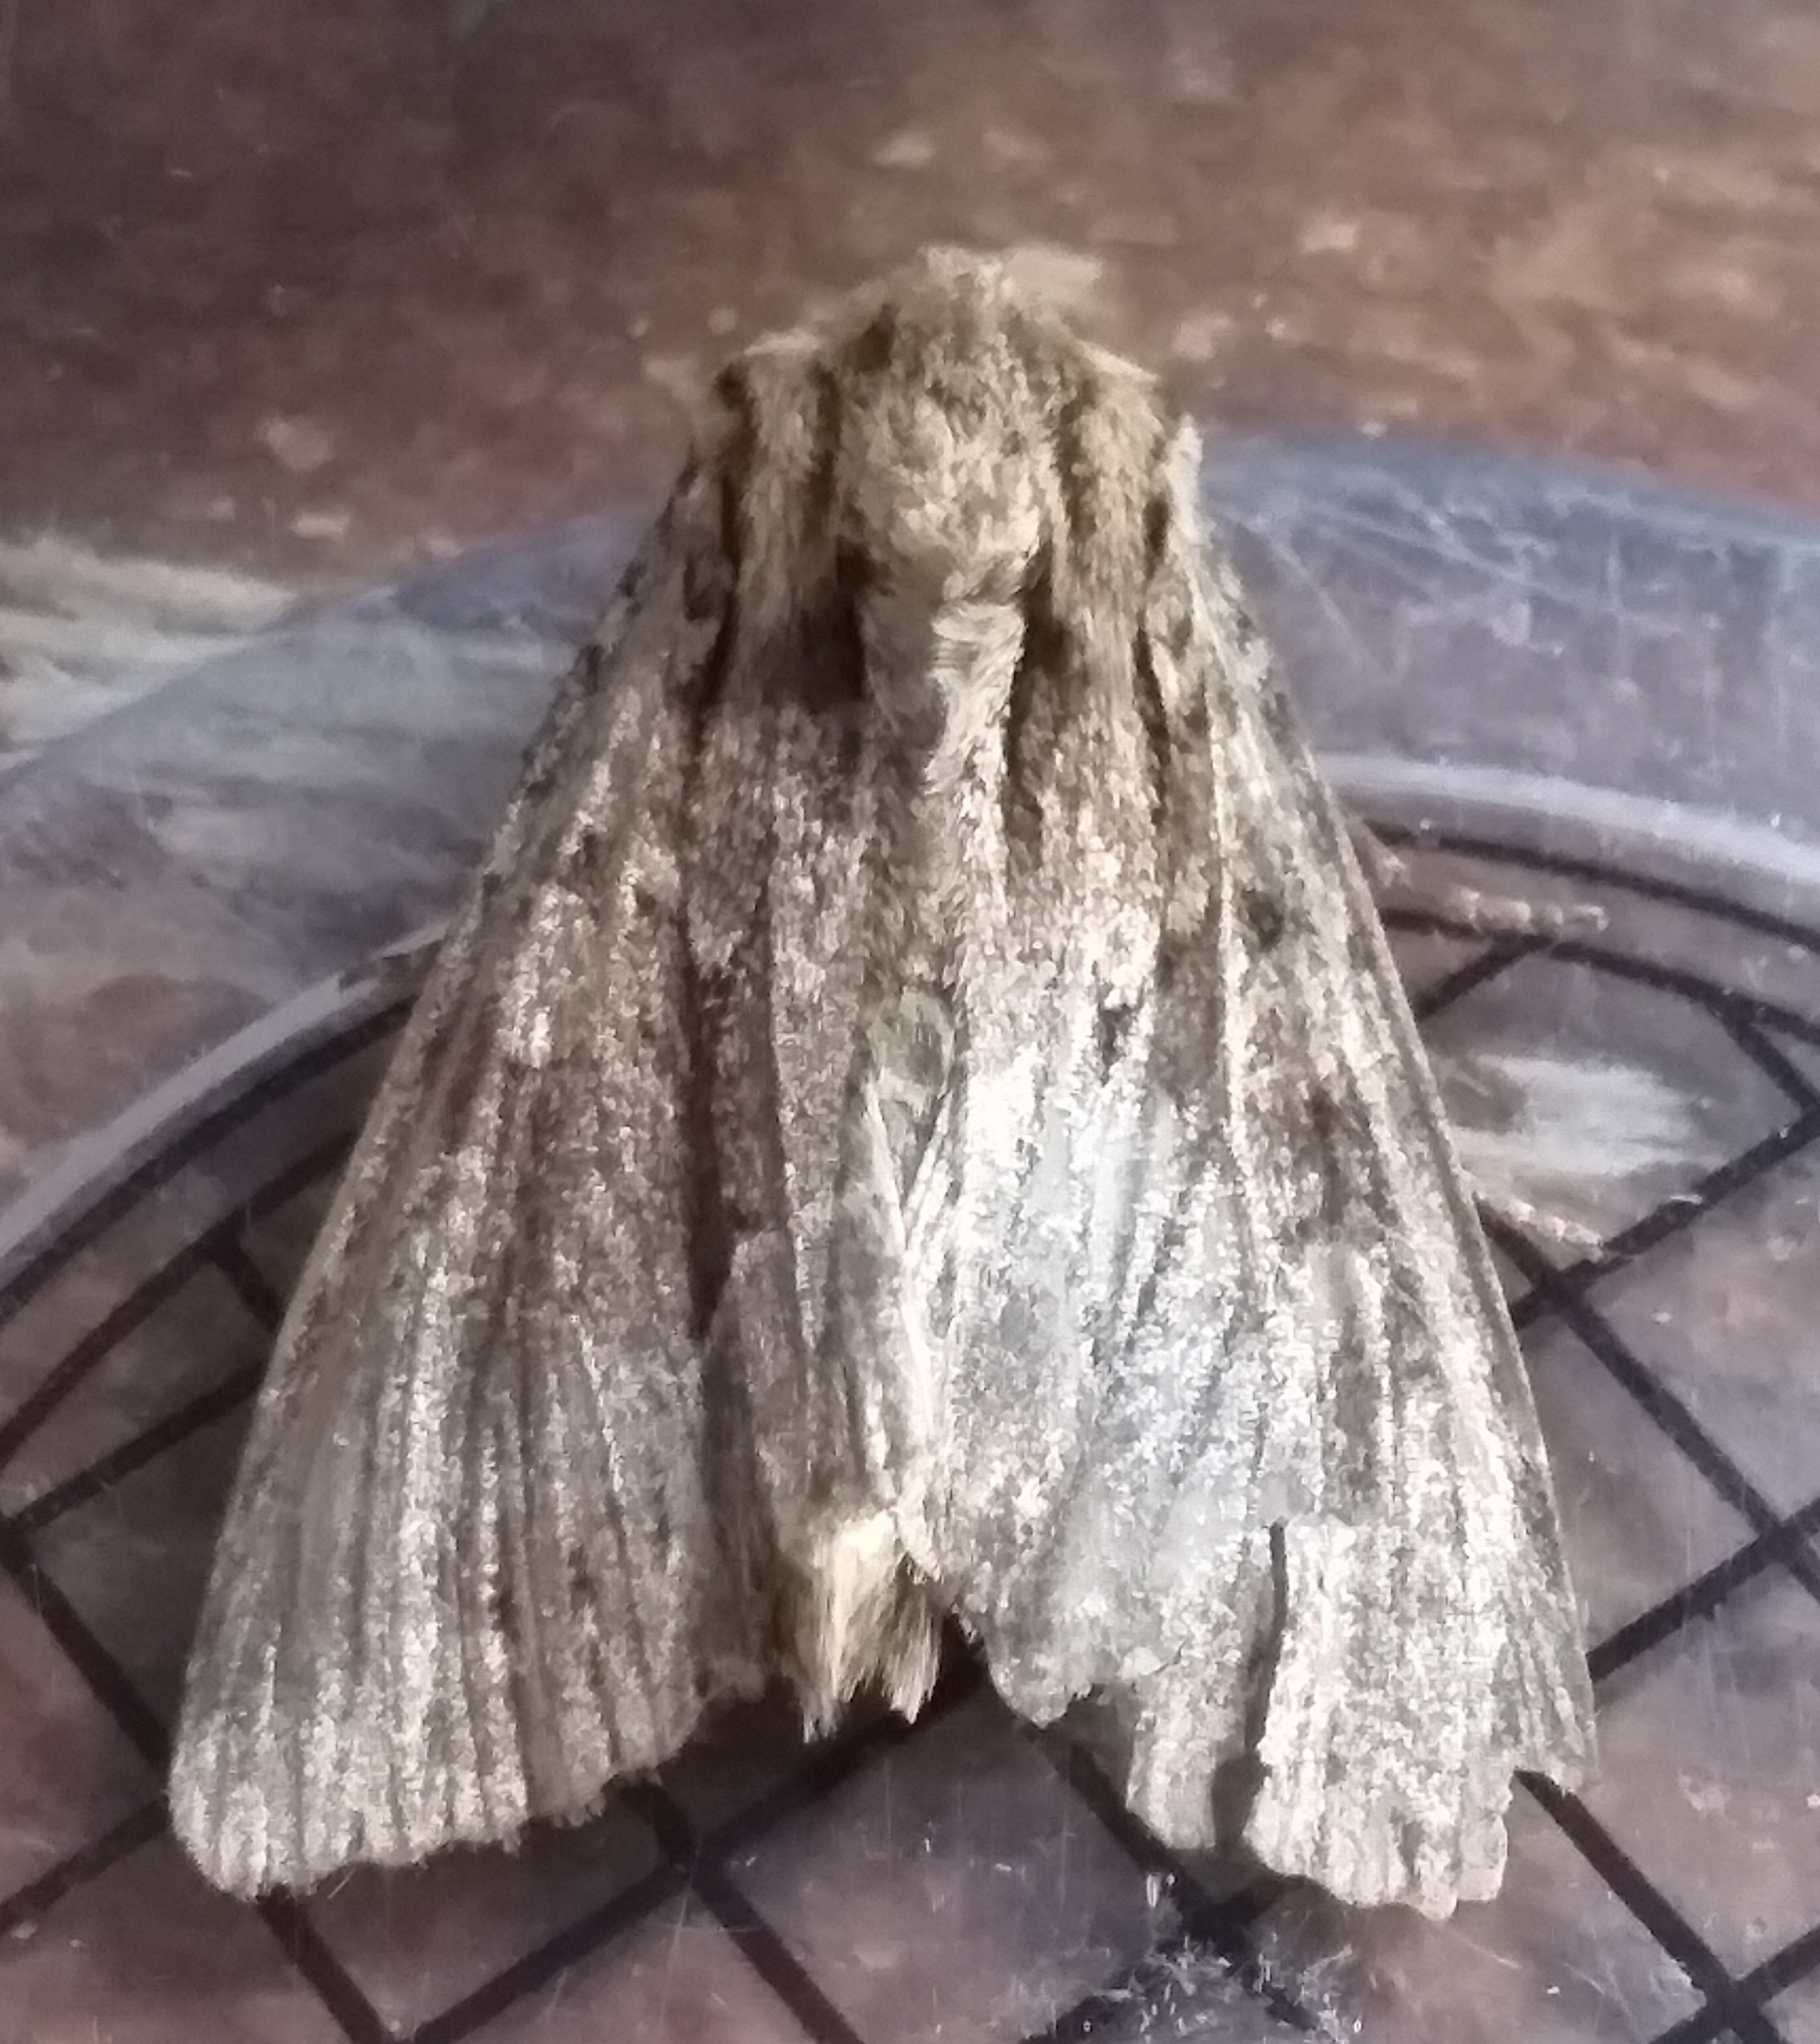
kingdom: Animalia
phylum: Arthropoda
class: Insecta
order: Lepidoptera
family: Noctuidae
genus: Apamea
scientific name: Apamea monoglypha
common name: Dark arches
